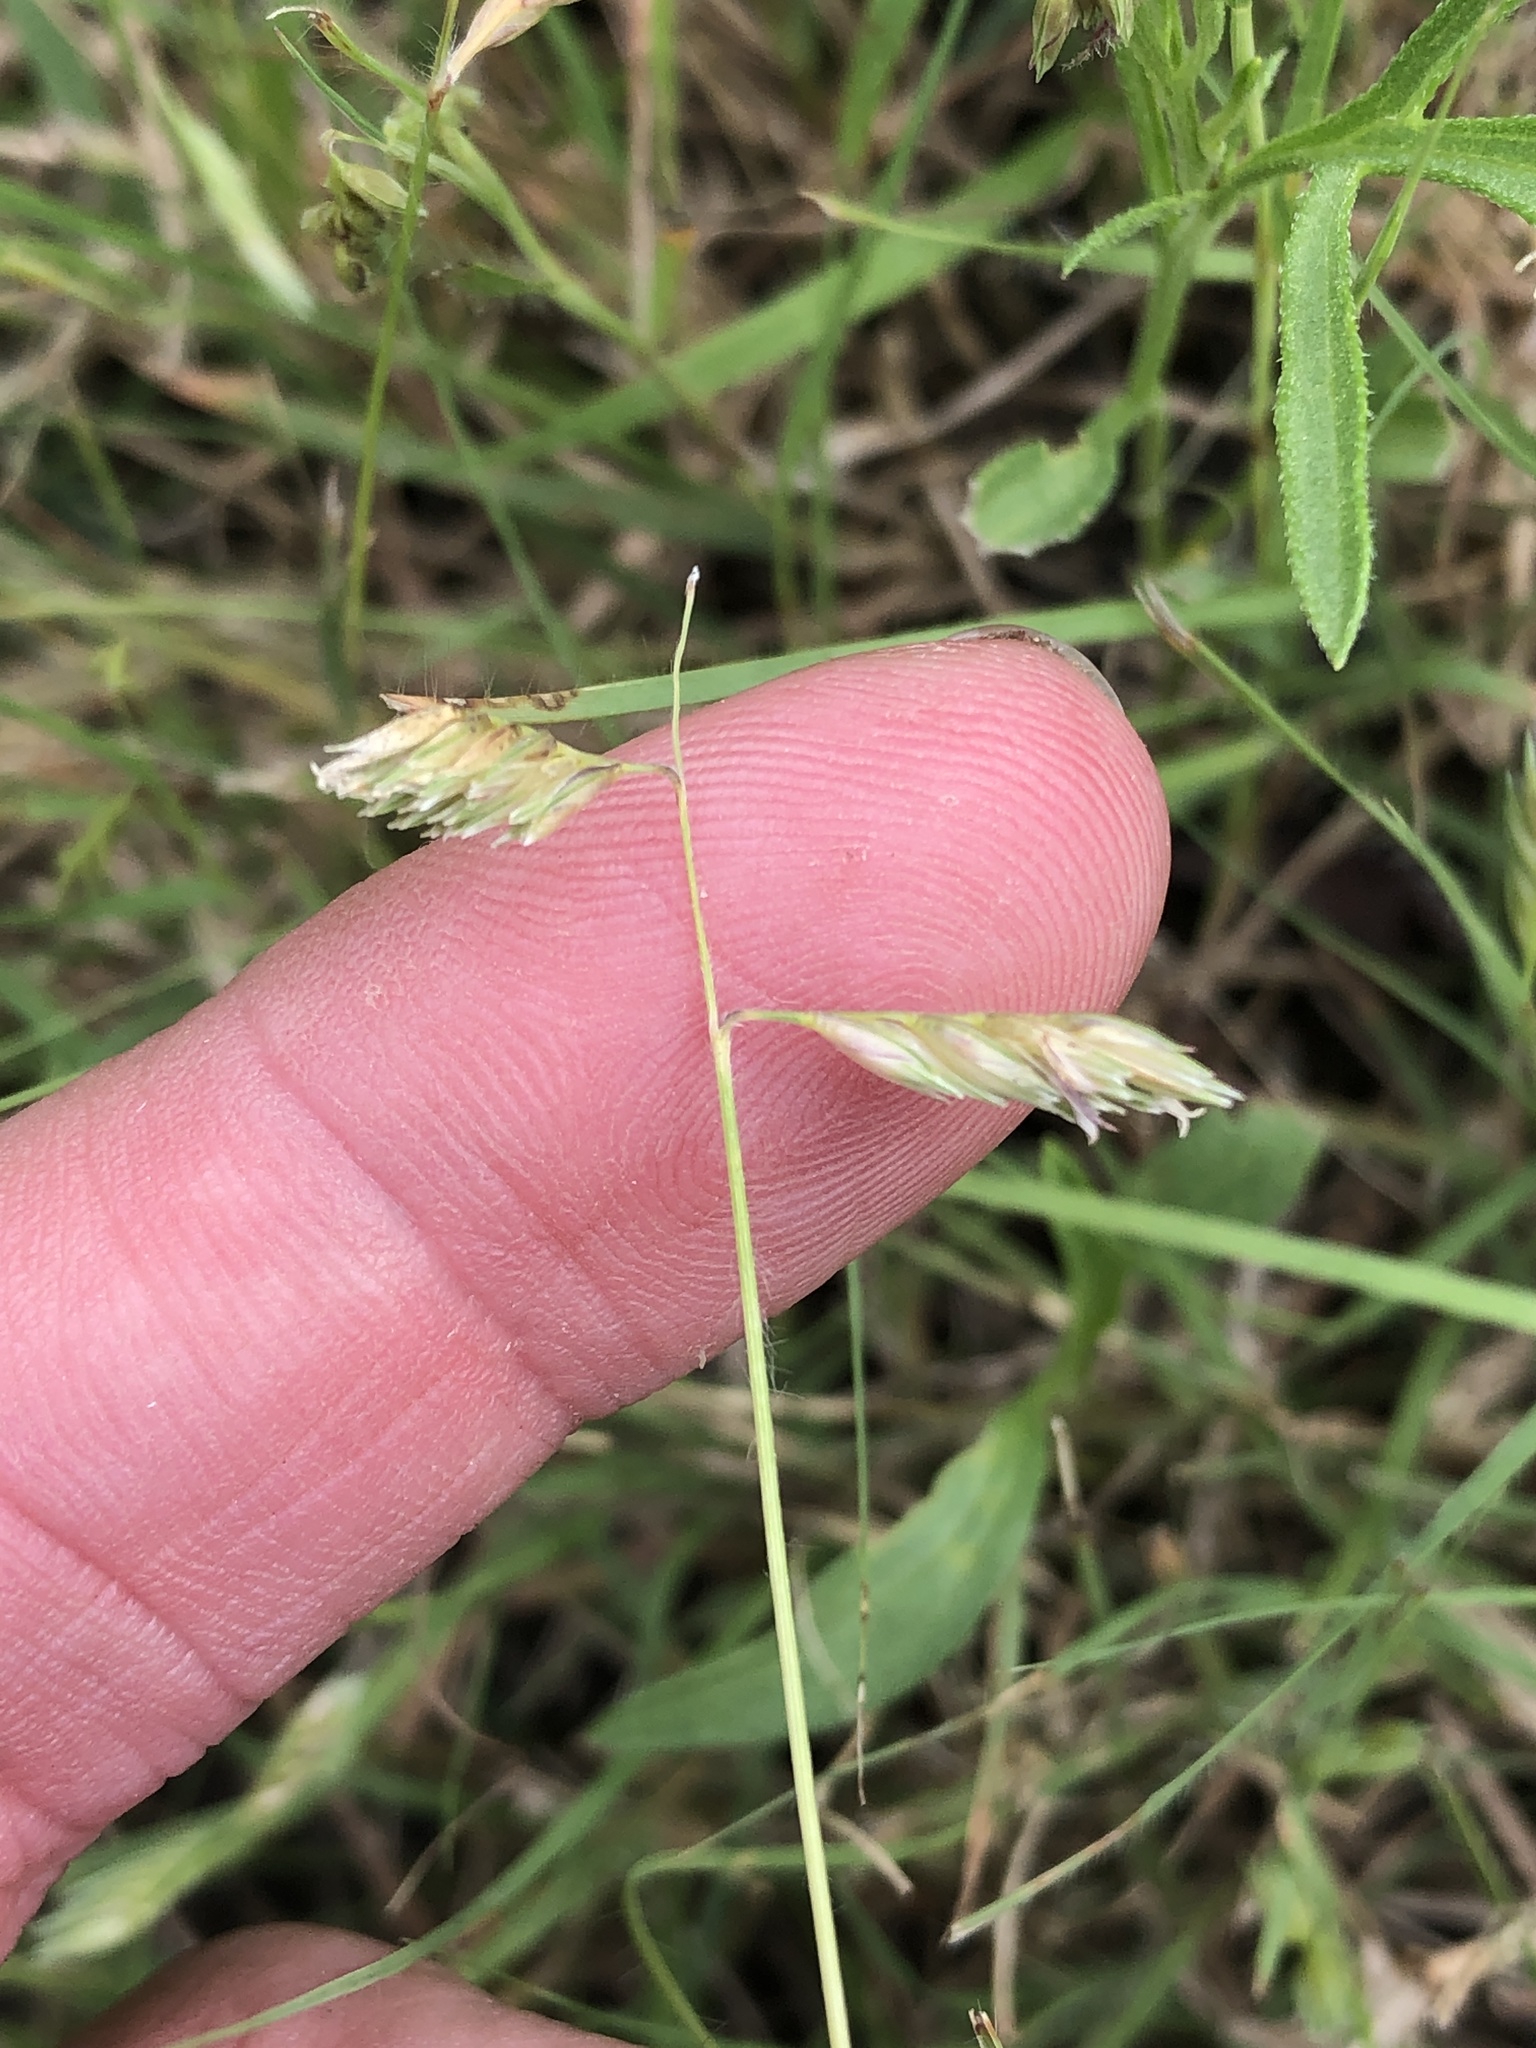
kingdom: Plantae
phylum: Tracheophyta
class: Liliopsida
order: Poales
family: Poaceae
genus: Bouteloua
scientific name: Bouteloua dactyloides
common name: Buffalo grass
